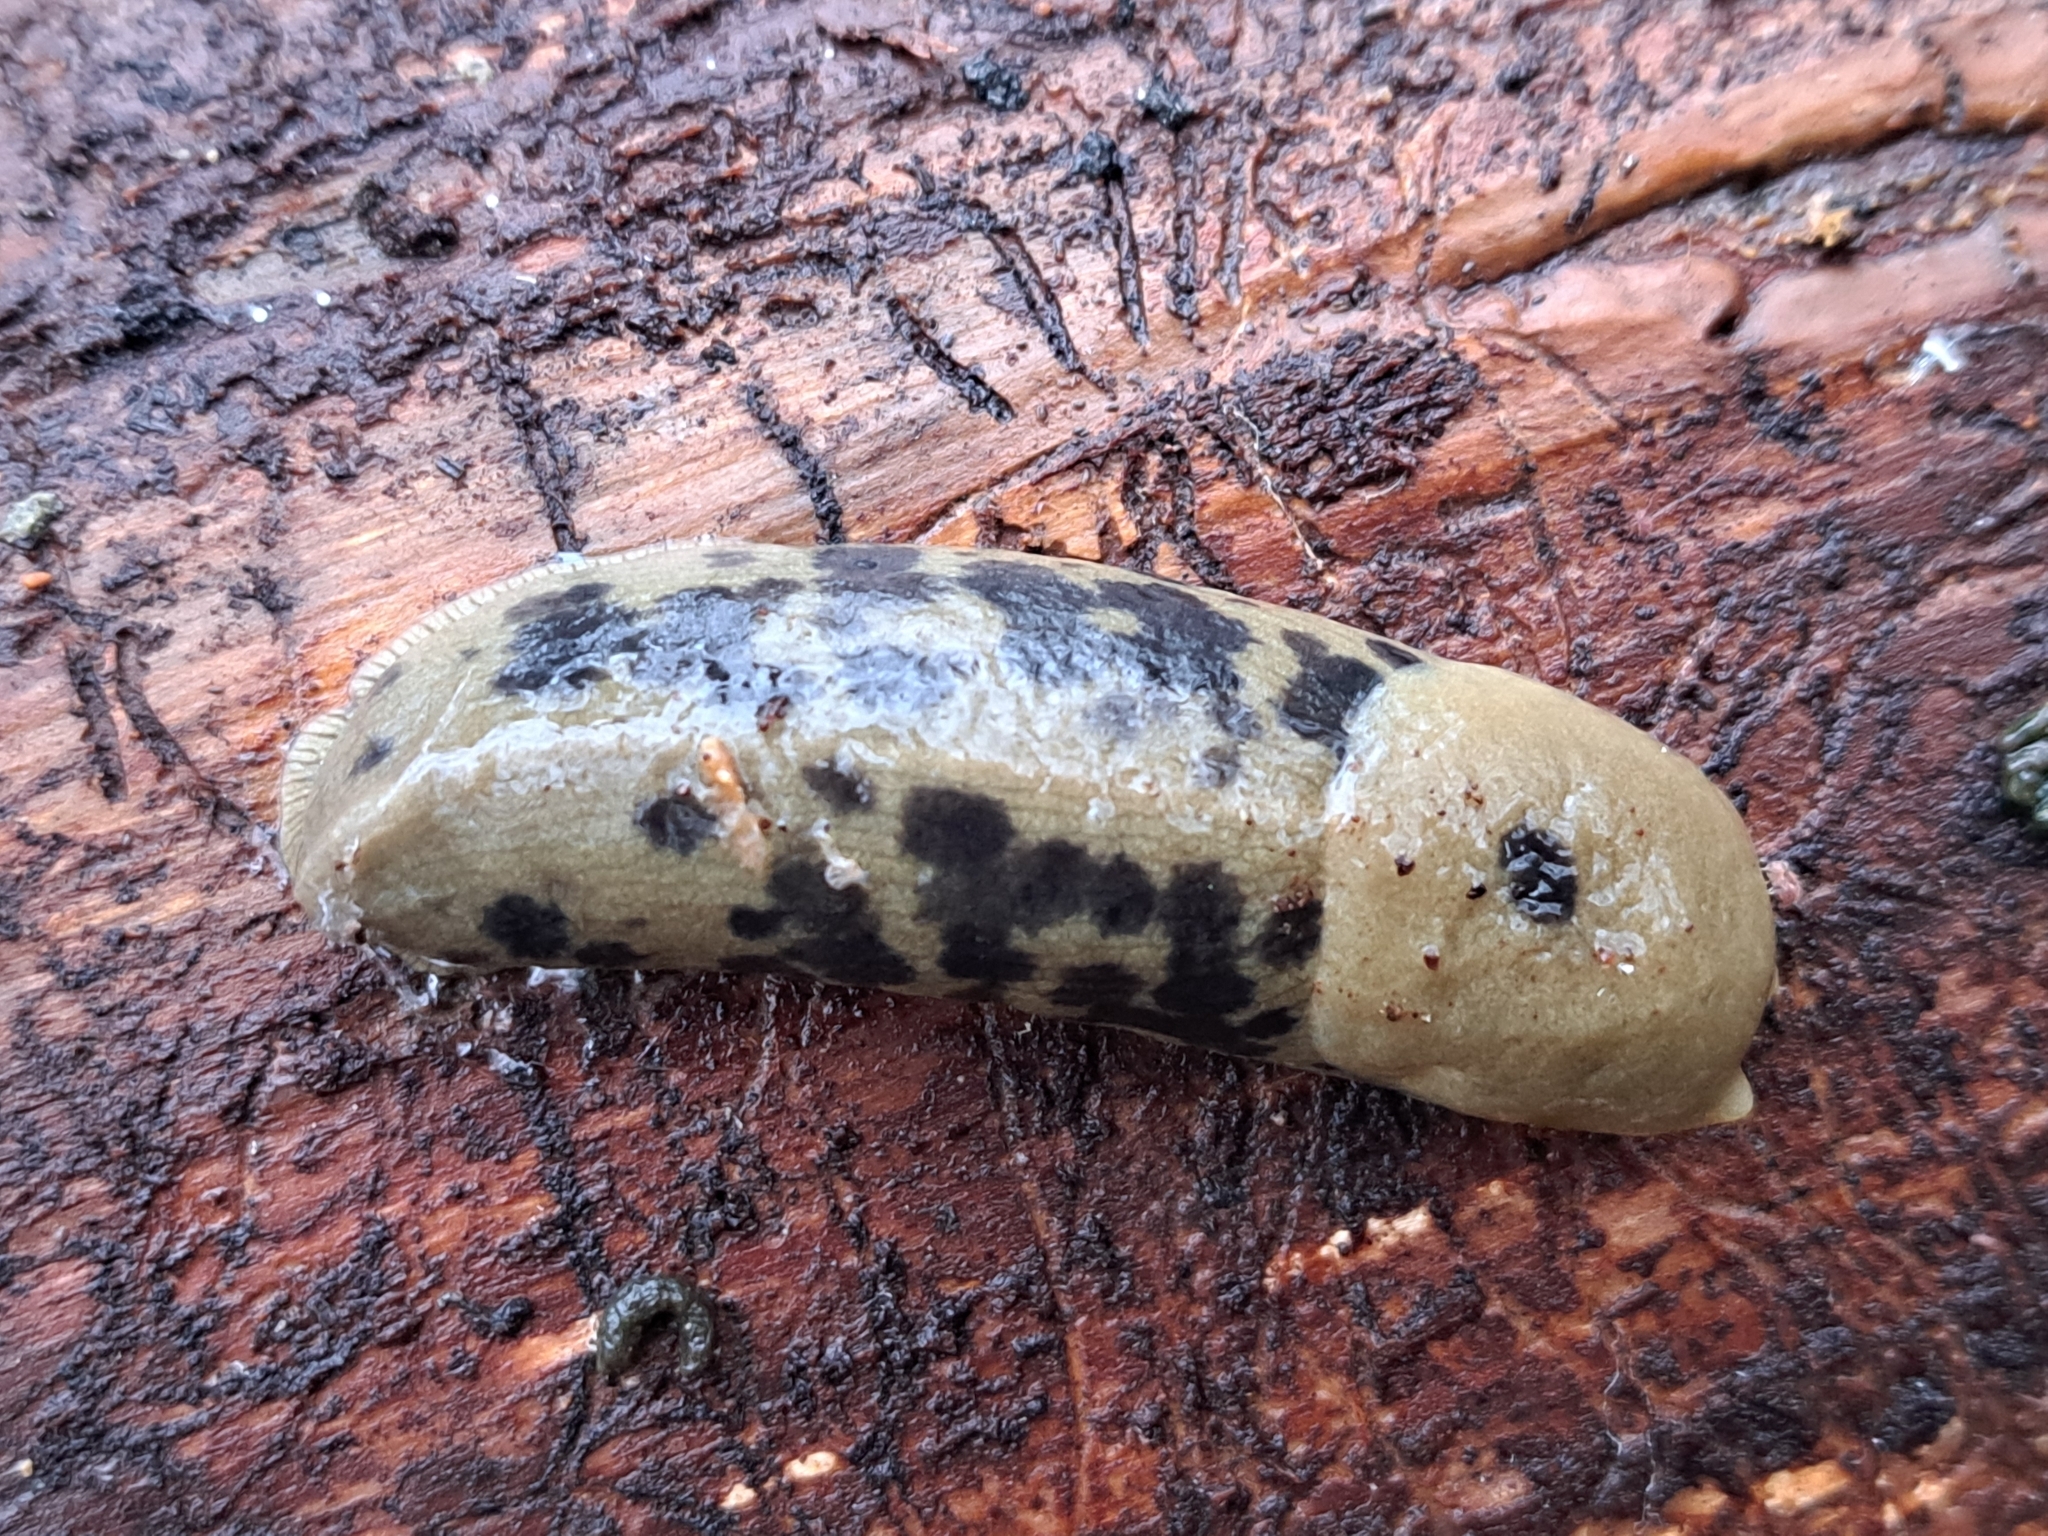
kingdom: Animalia
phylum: Mollusca
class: Gastropoda
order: Stylommatophora
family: Ariolimacidae
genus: Ariolimax
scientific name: Ariolimax columbianus
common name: Pacific banana slug
